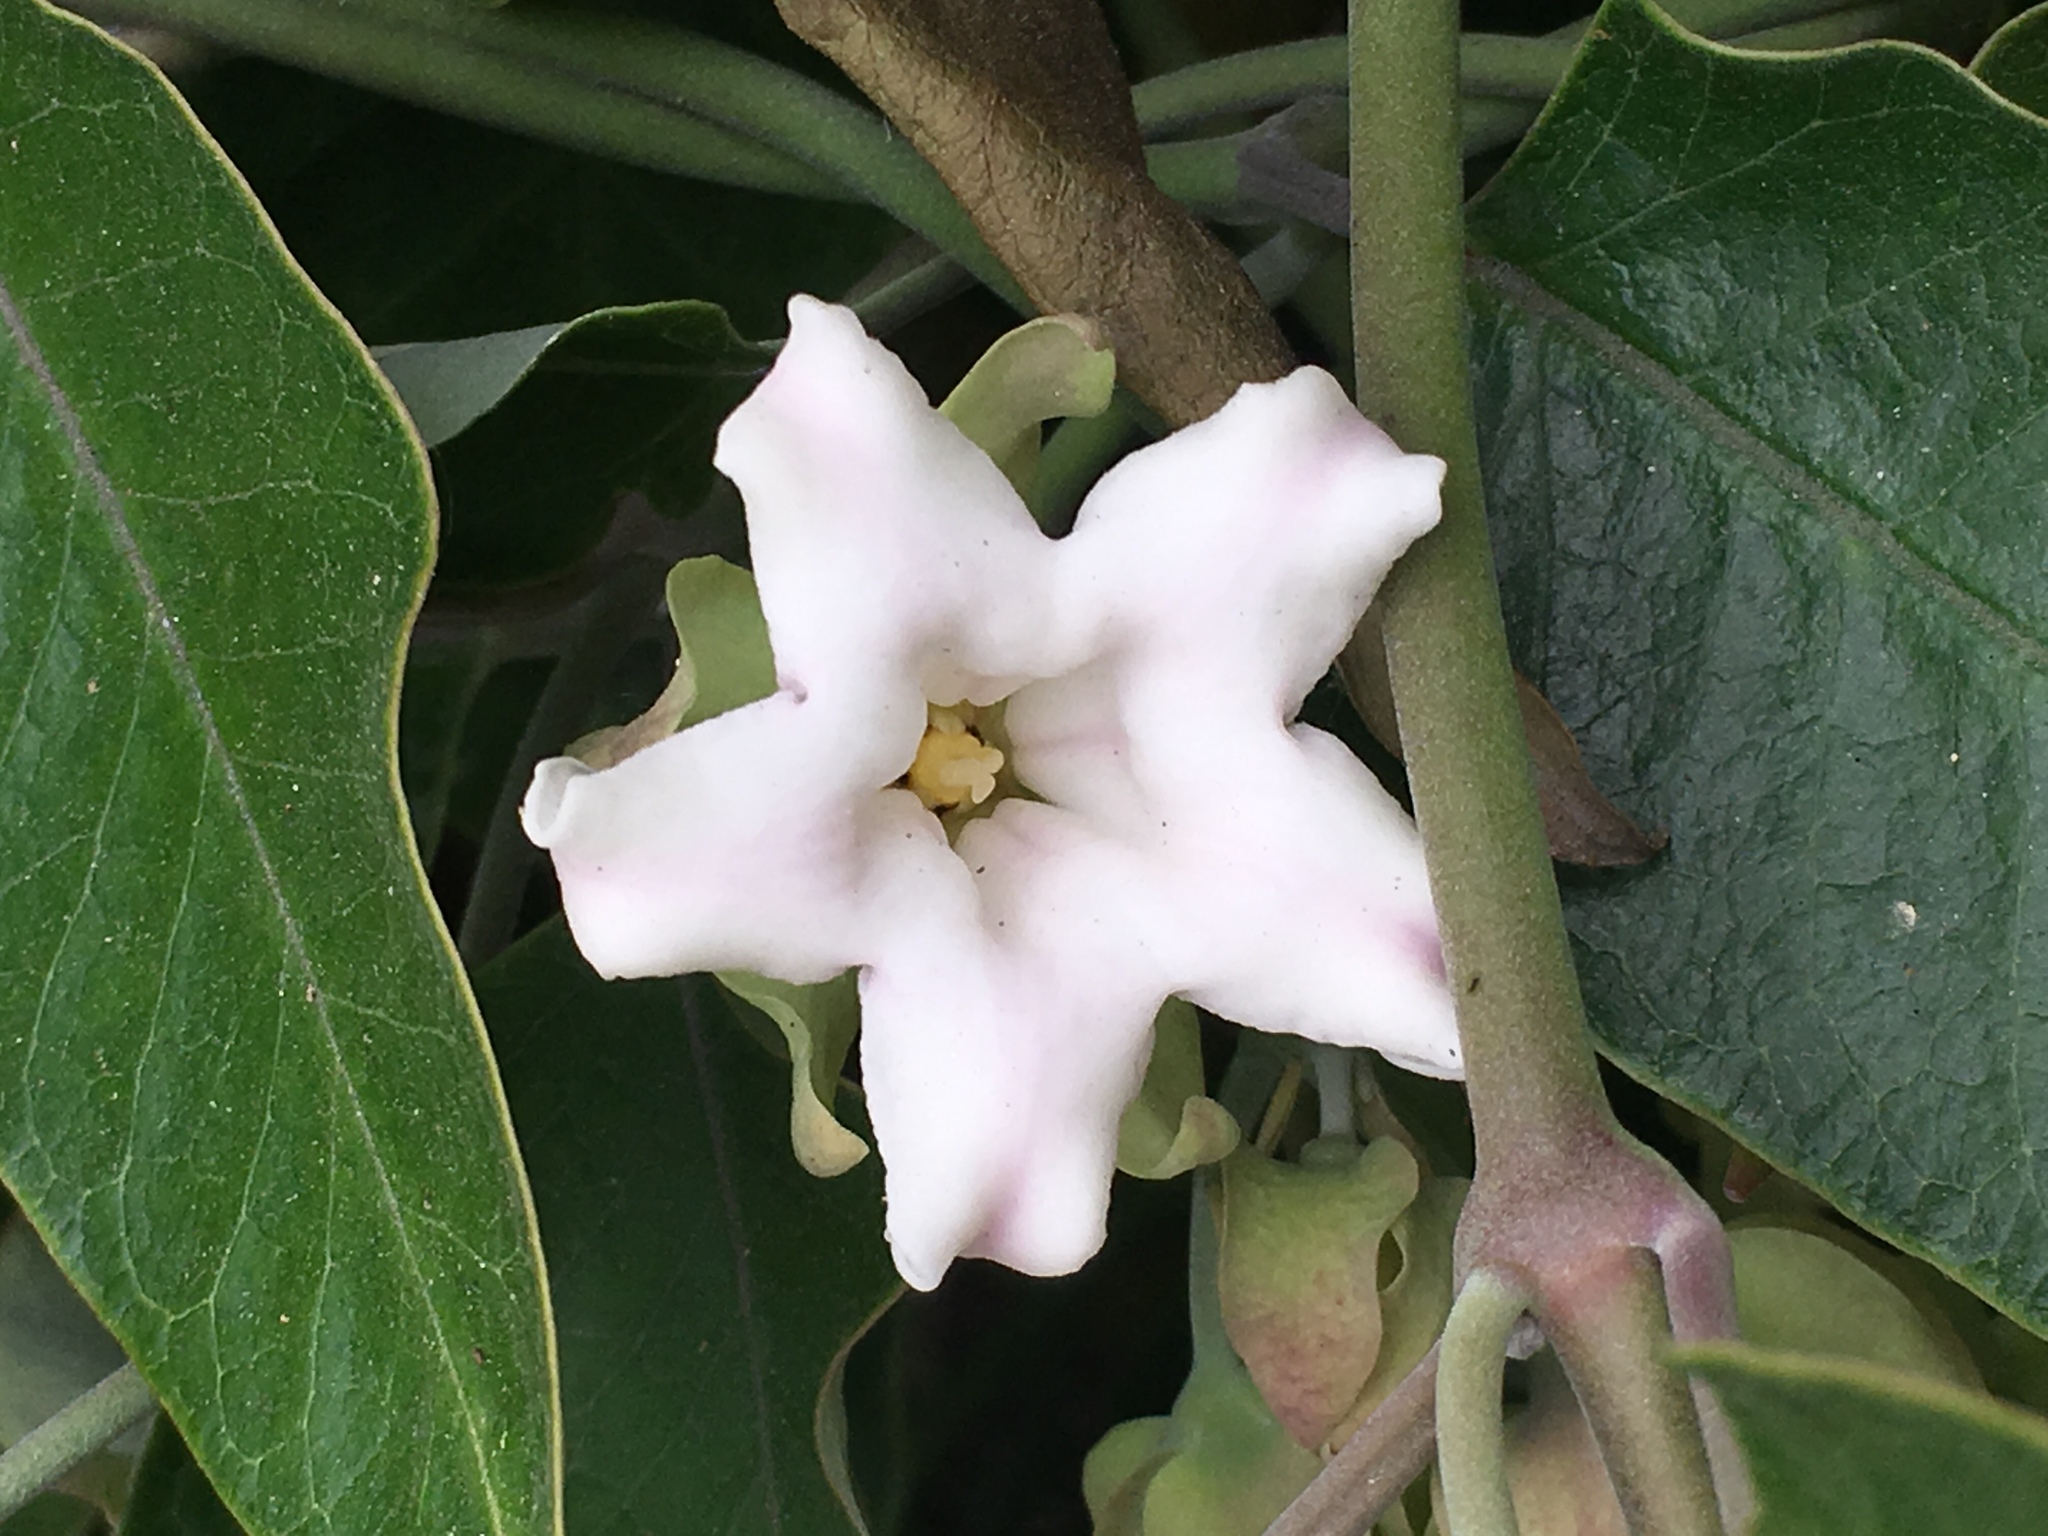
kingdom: Plantae
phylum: Tracheophyta
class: Magnoliopsida
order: Gentianales
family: Apocynaceae
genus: Araujia
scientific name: Araujia sericifera
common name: White bladderflower
